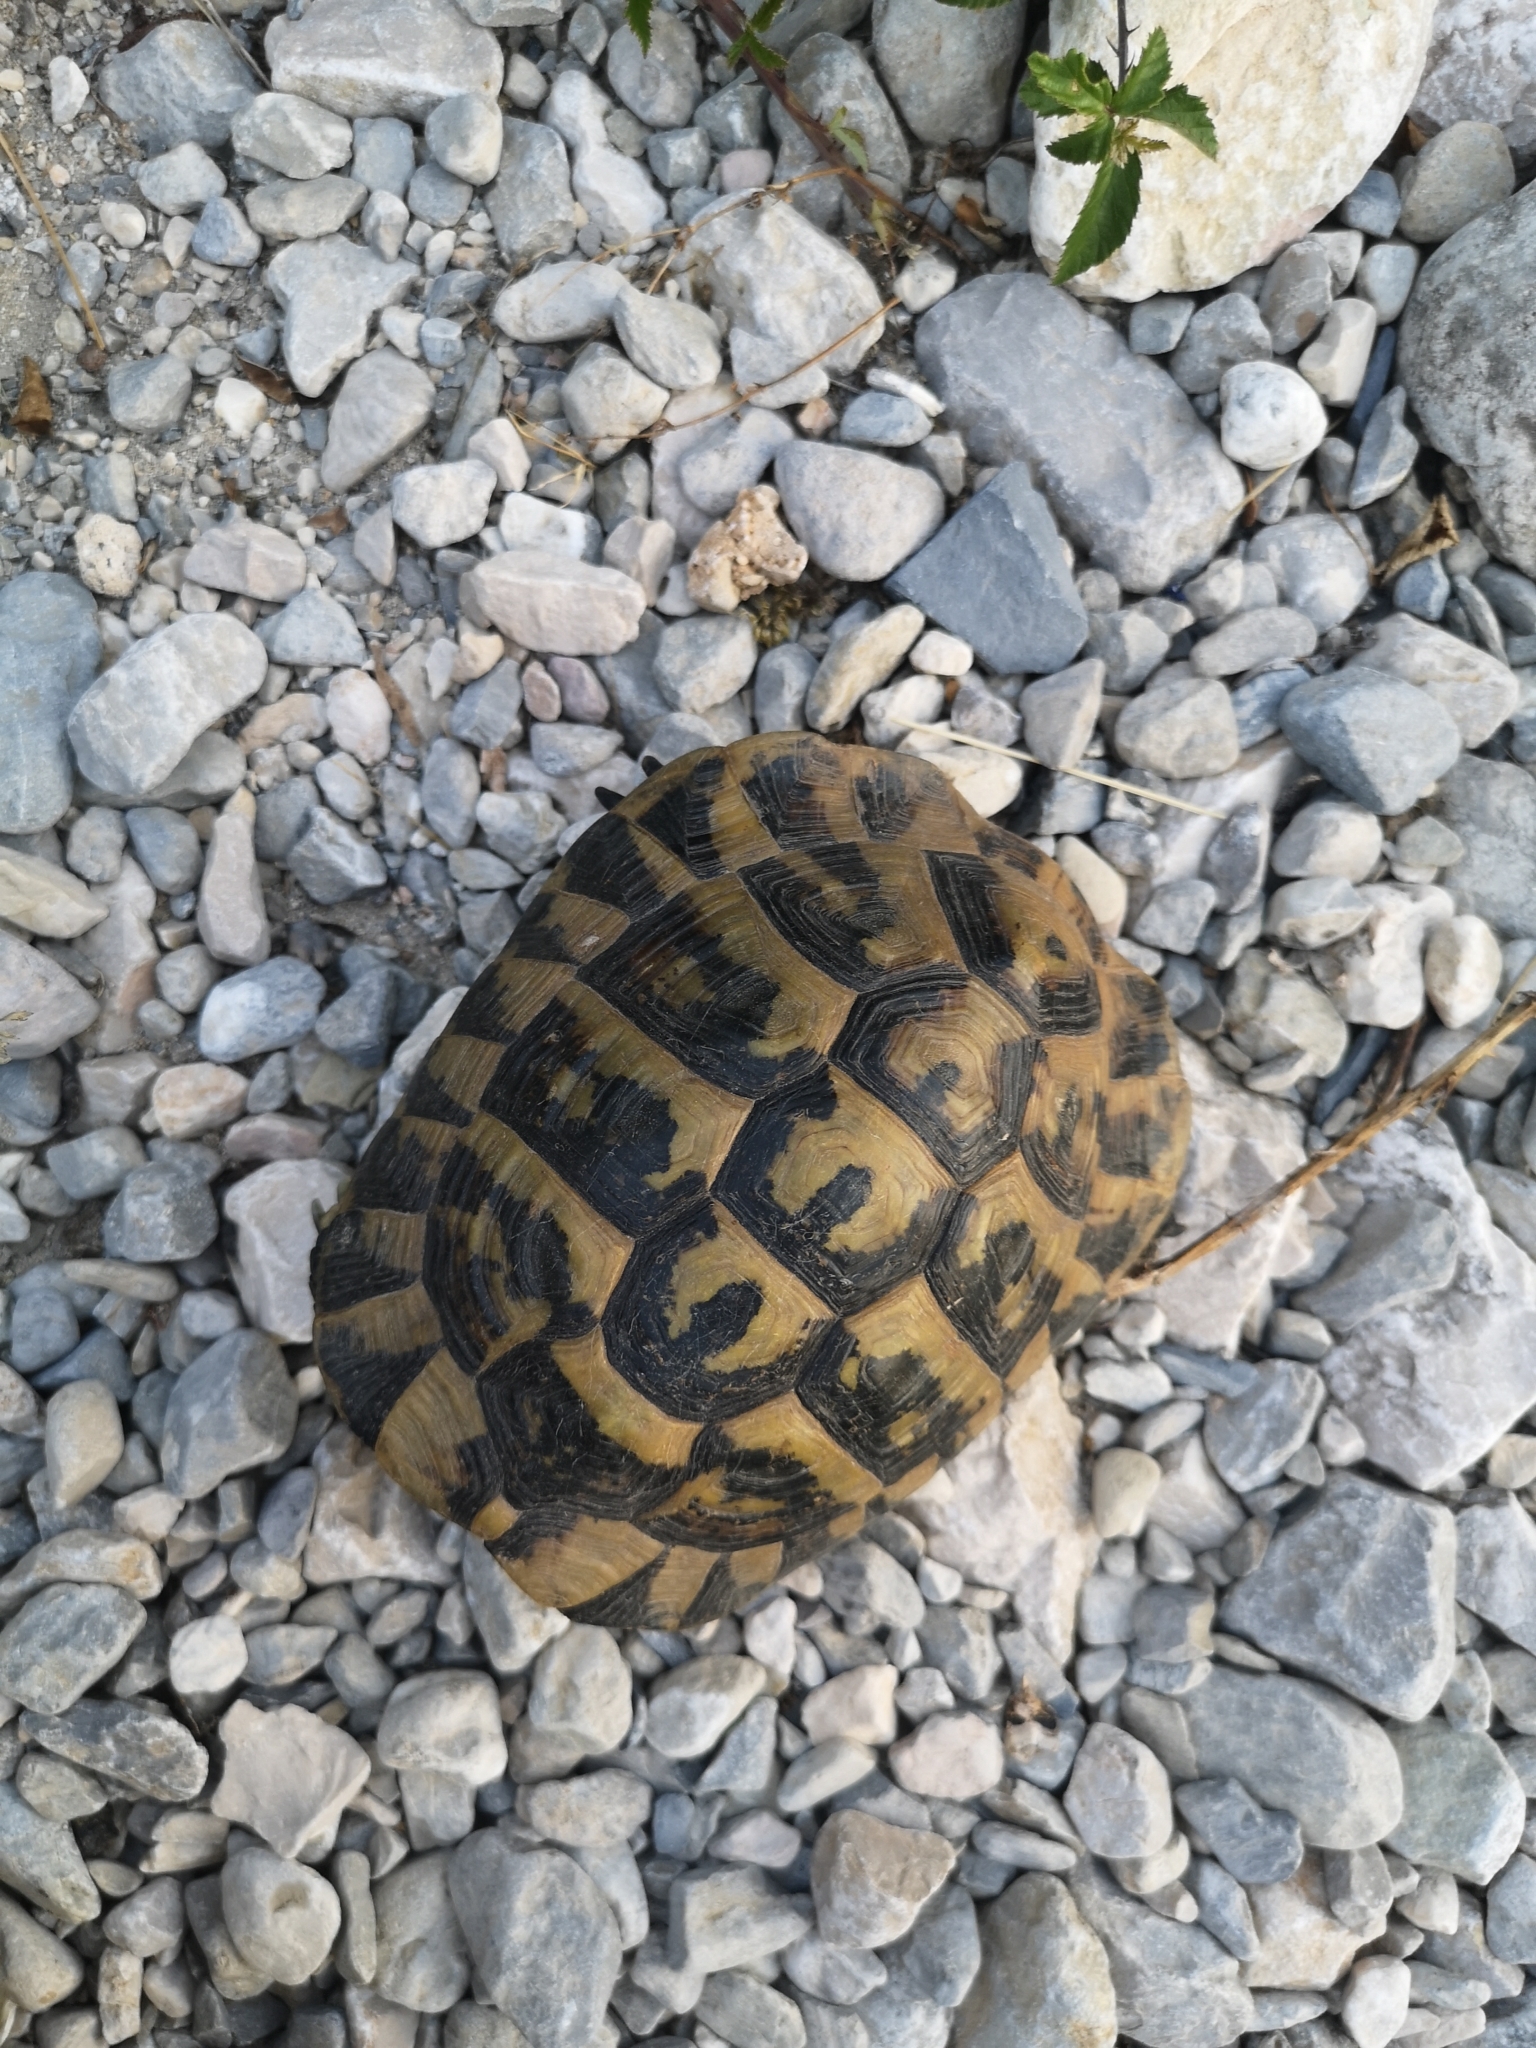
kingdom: Animalia
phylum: Chordata
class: Testudines
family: Testudinidae
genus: Testudo
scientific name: Testudo hermanni
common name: Hermann's tortoise
